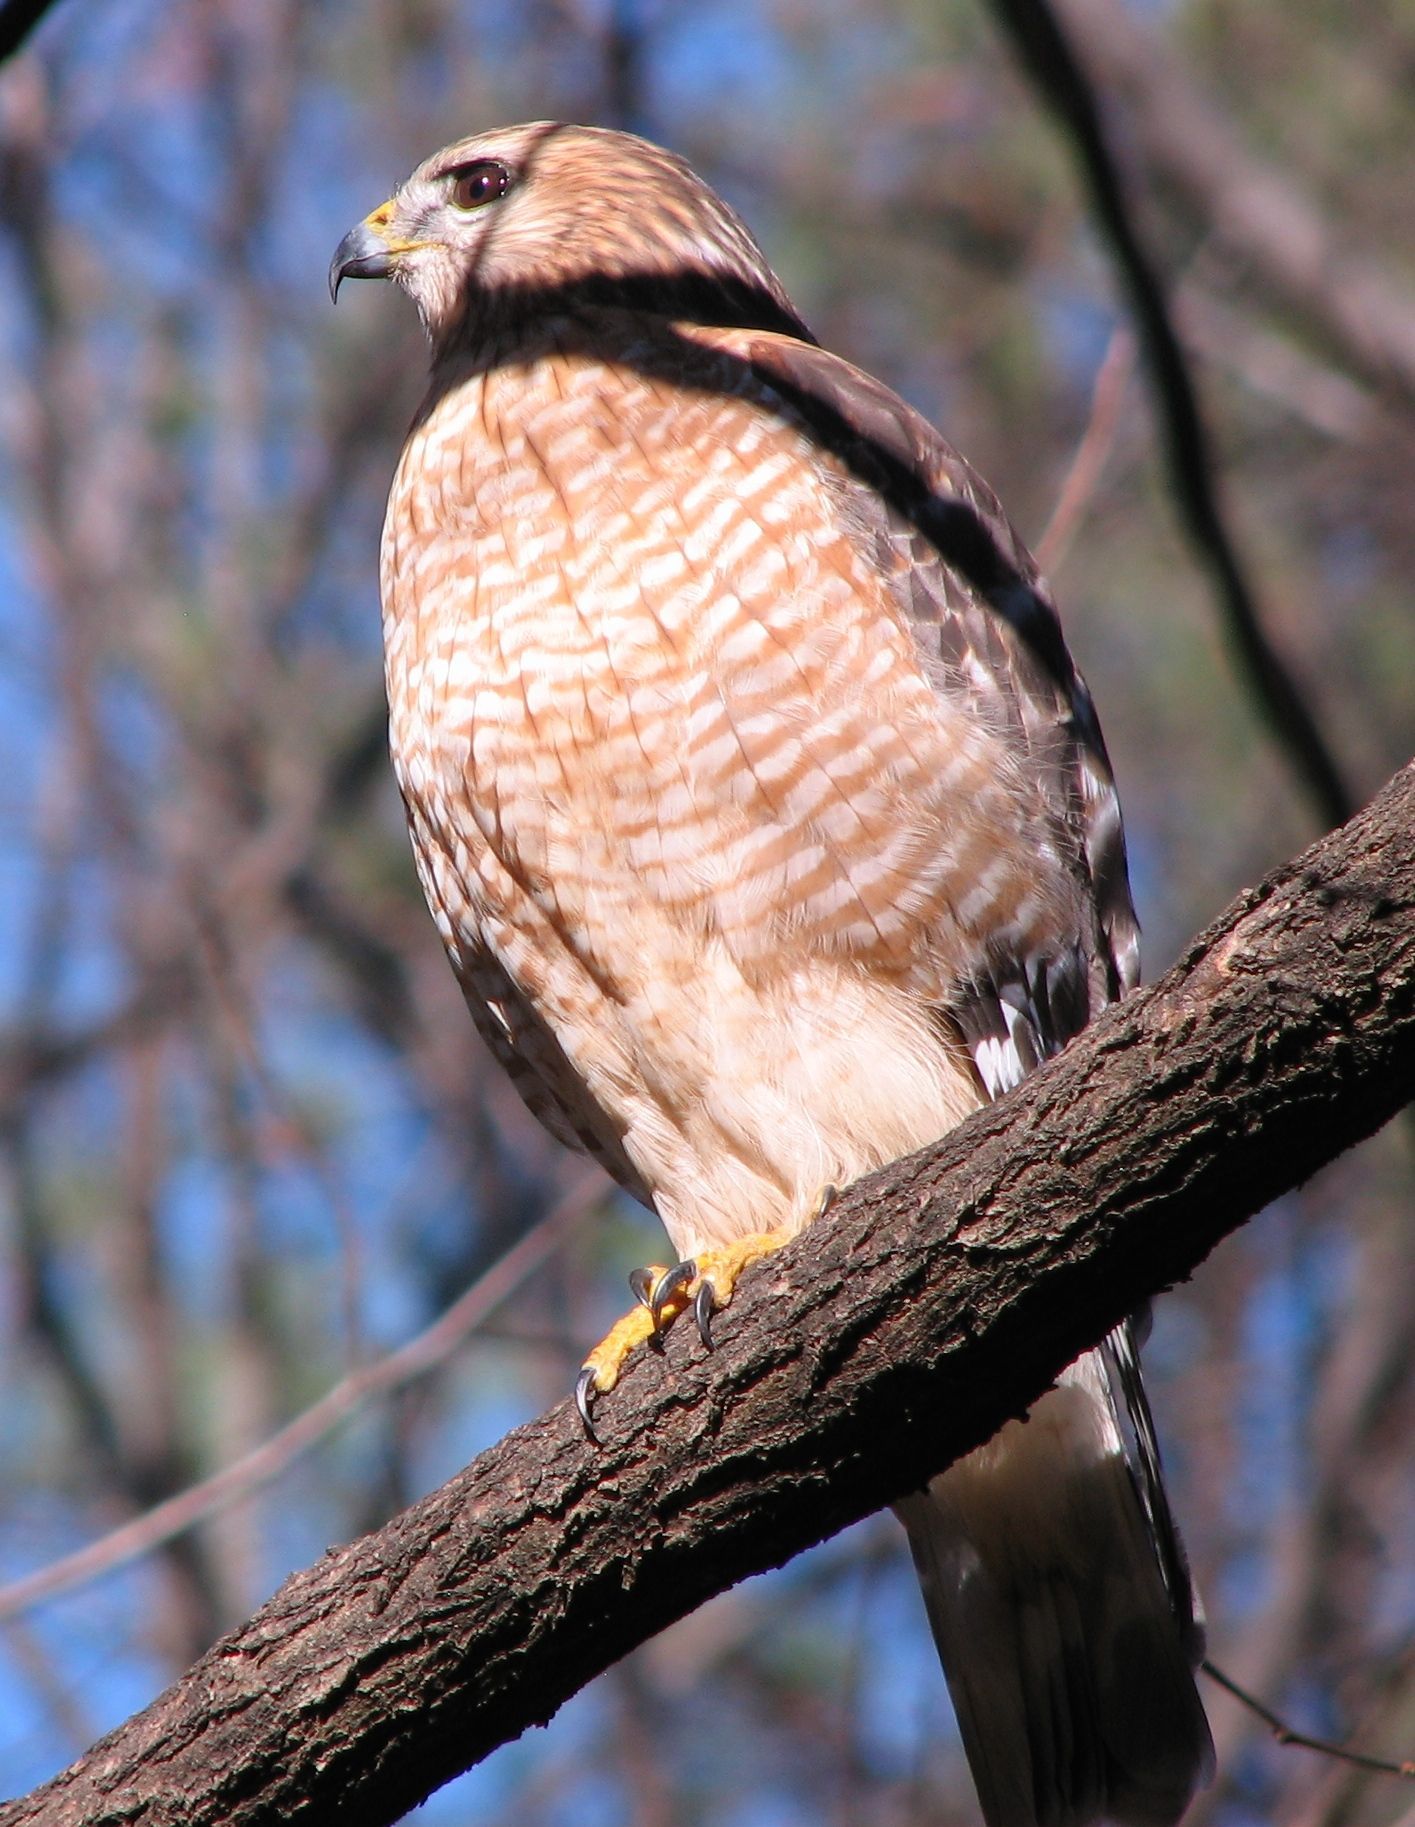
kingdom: Animalia
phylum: Chordata
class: Aves
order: Accipitriformes
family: Accipitridae
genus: Buteo
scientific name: Buteo lineatus
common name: Red-shouldered hawk
